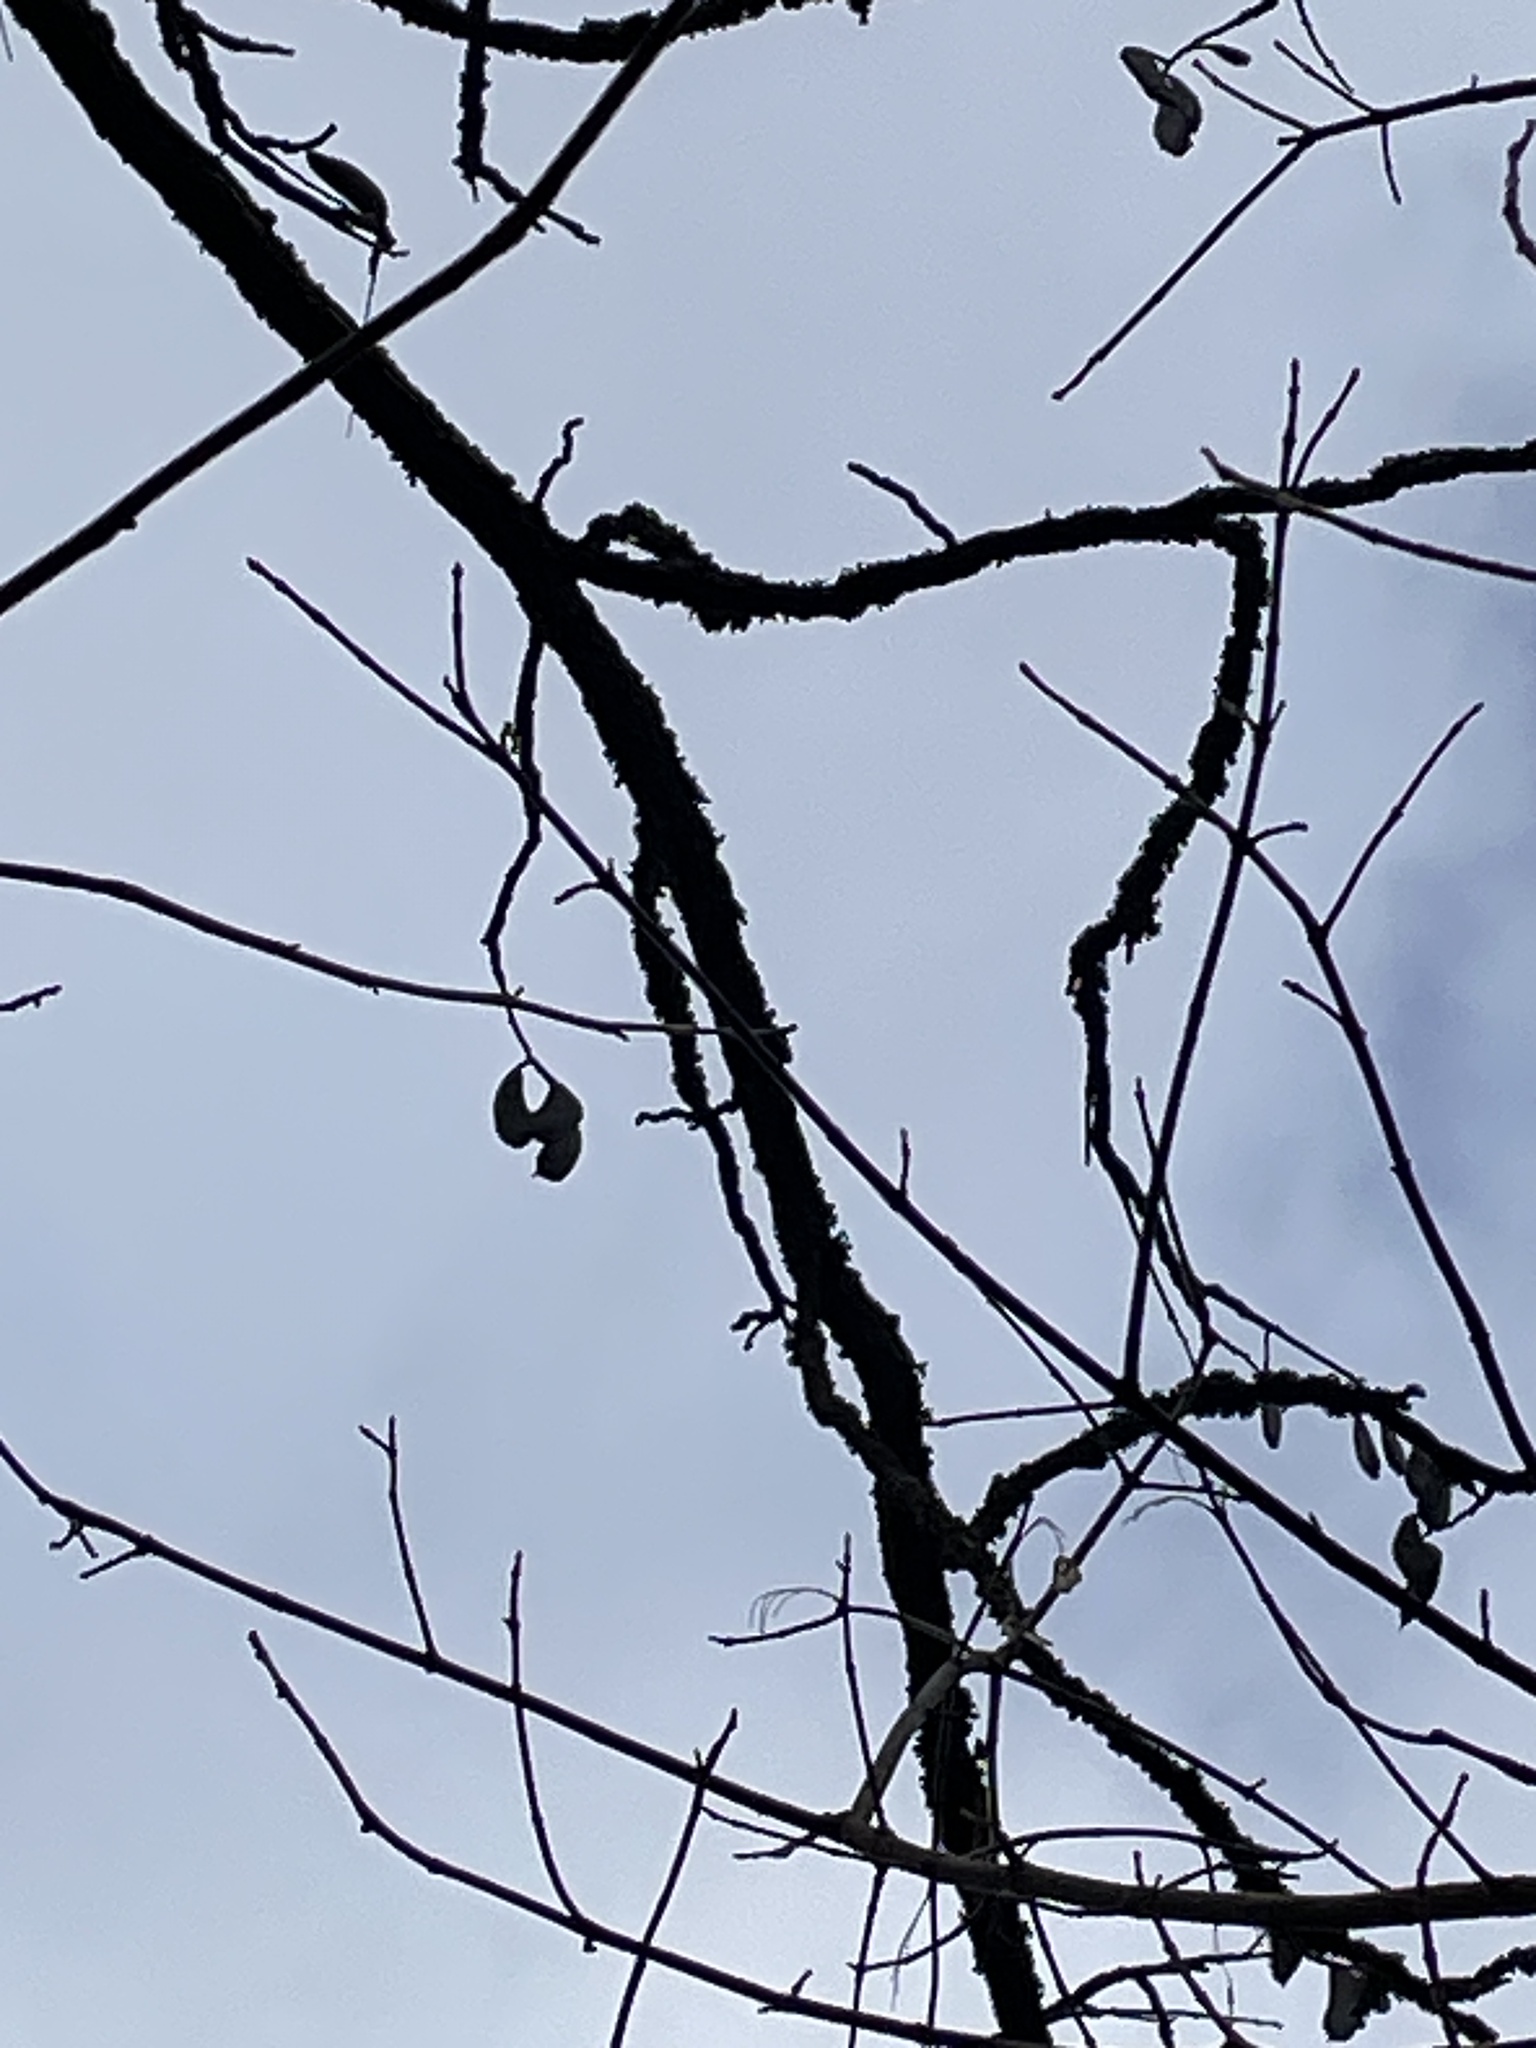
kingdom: Plantae
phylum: Tracheophyta
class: Magnoliopsida
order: Fabales
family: Fabaceae
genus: Gymnocladus
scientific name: Gymnocladus dioicus
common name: Kentucky coffee-tree
